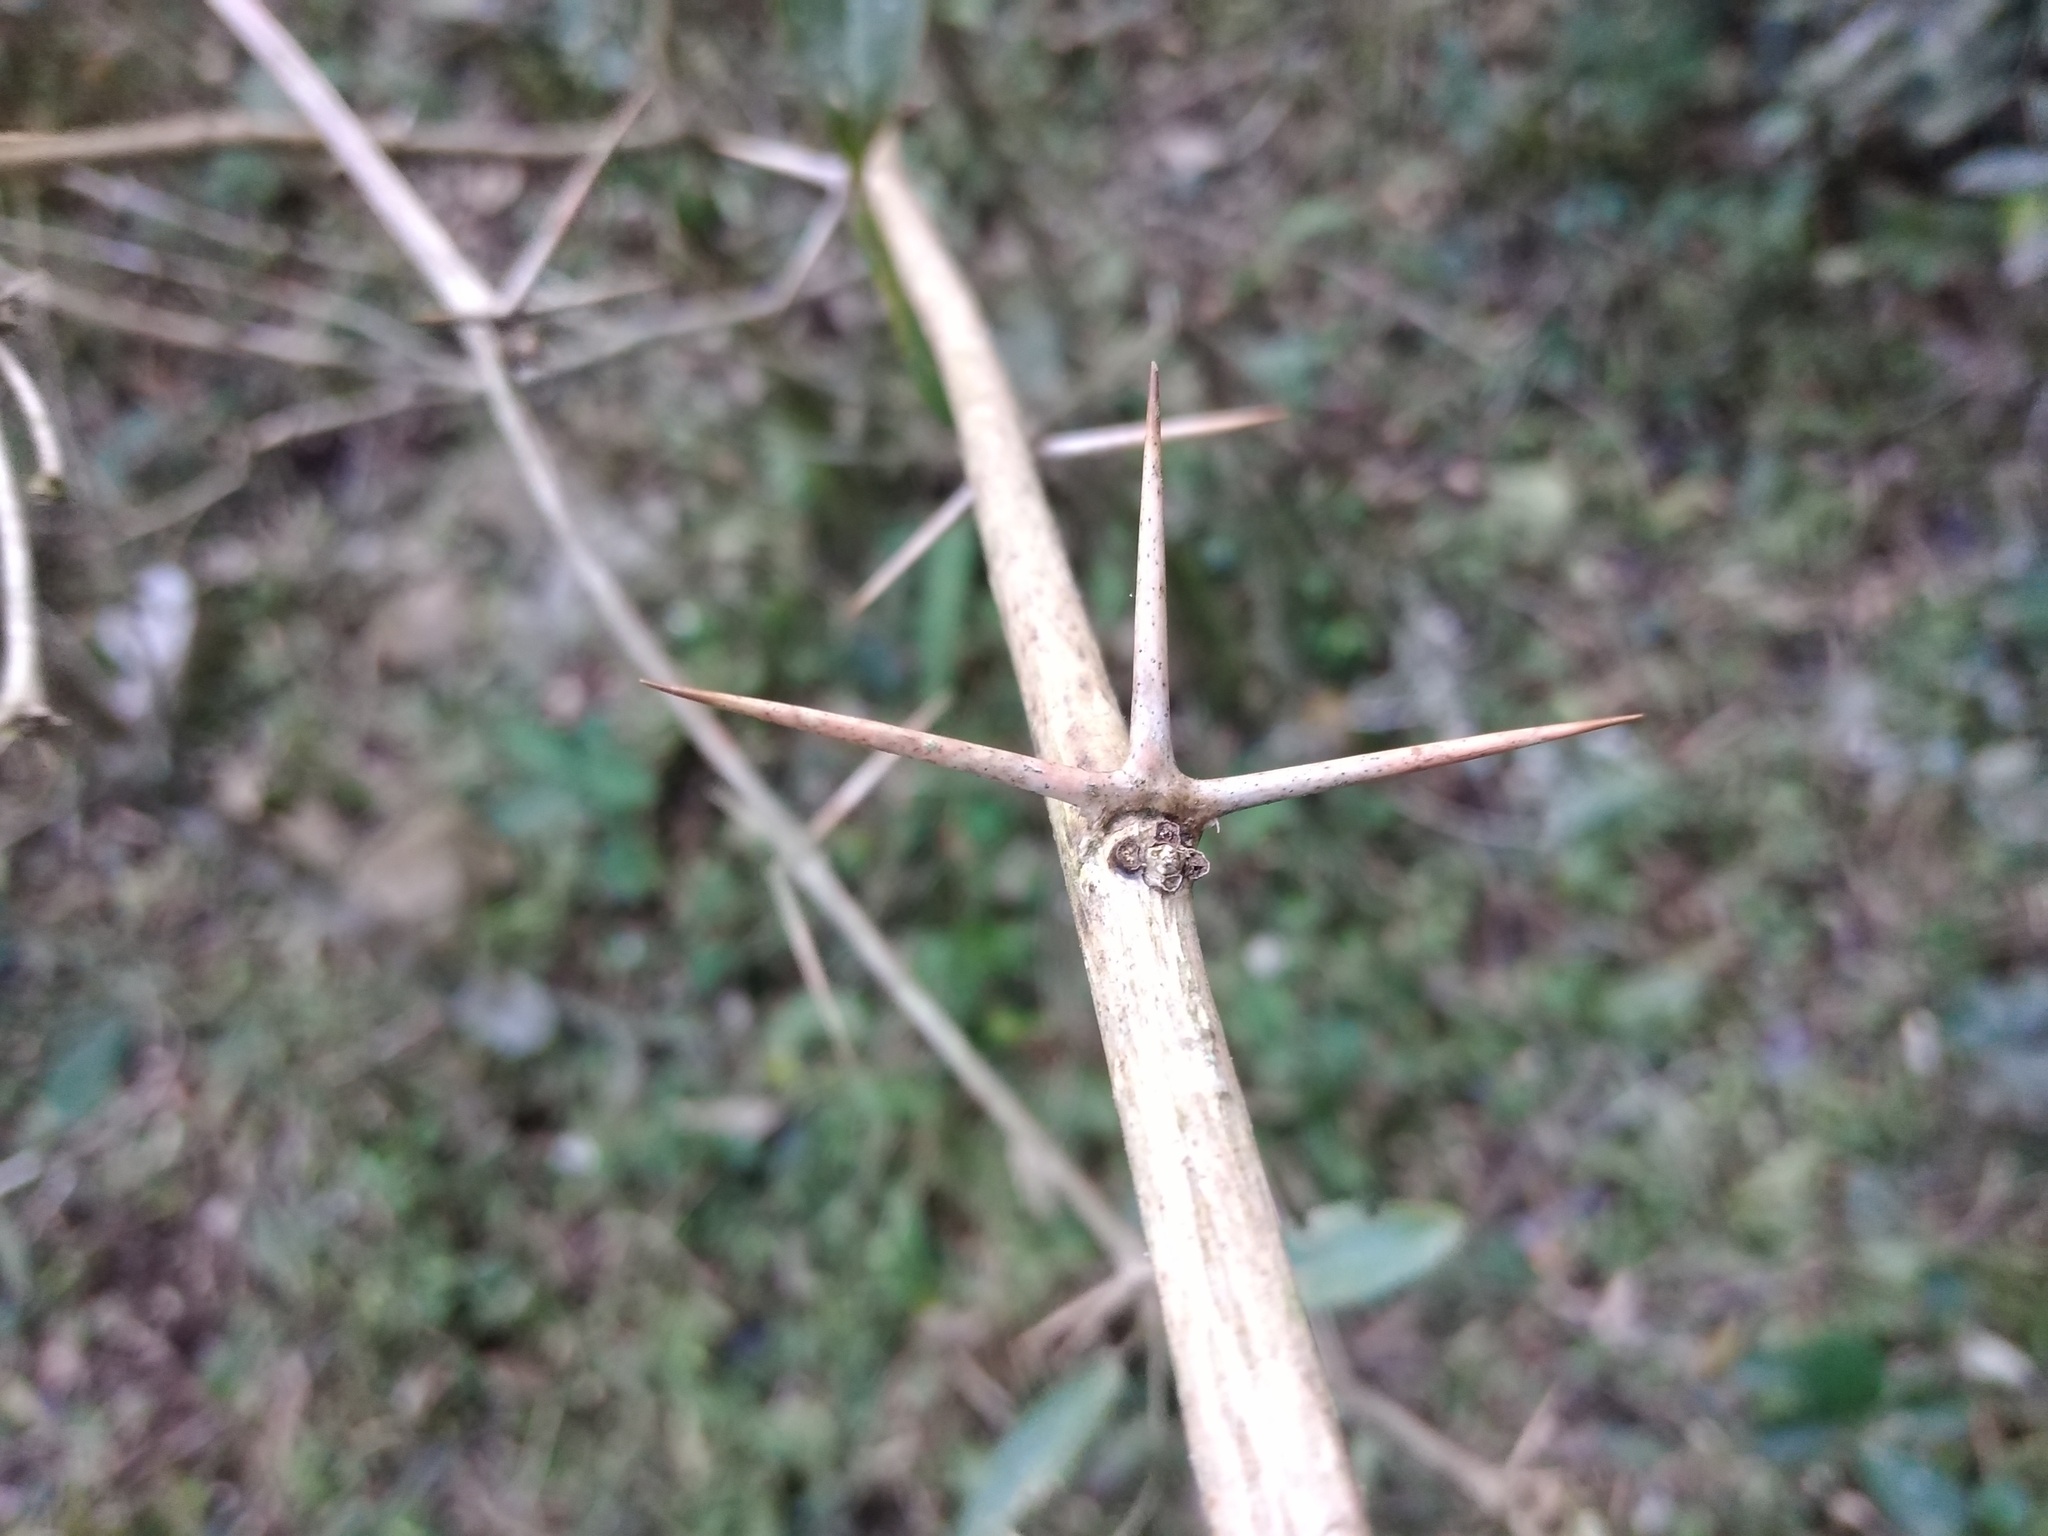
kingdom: Plantae
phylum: Tracheophyta
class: Magnoliopsida
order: Ranunculales
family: Berberidaceae
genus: Berberis
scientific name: Berberis laurina
